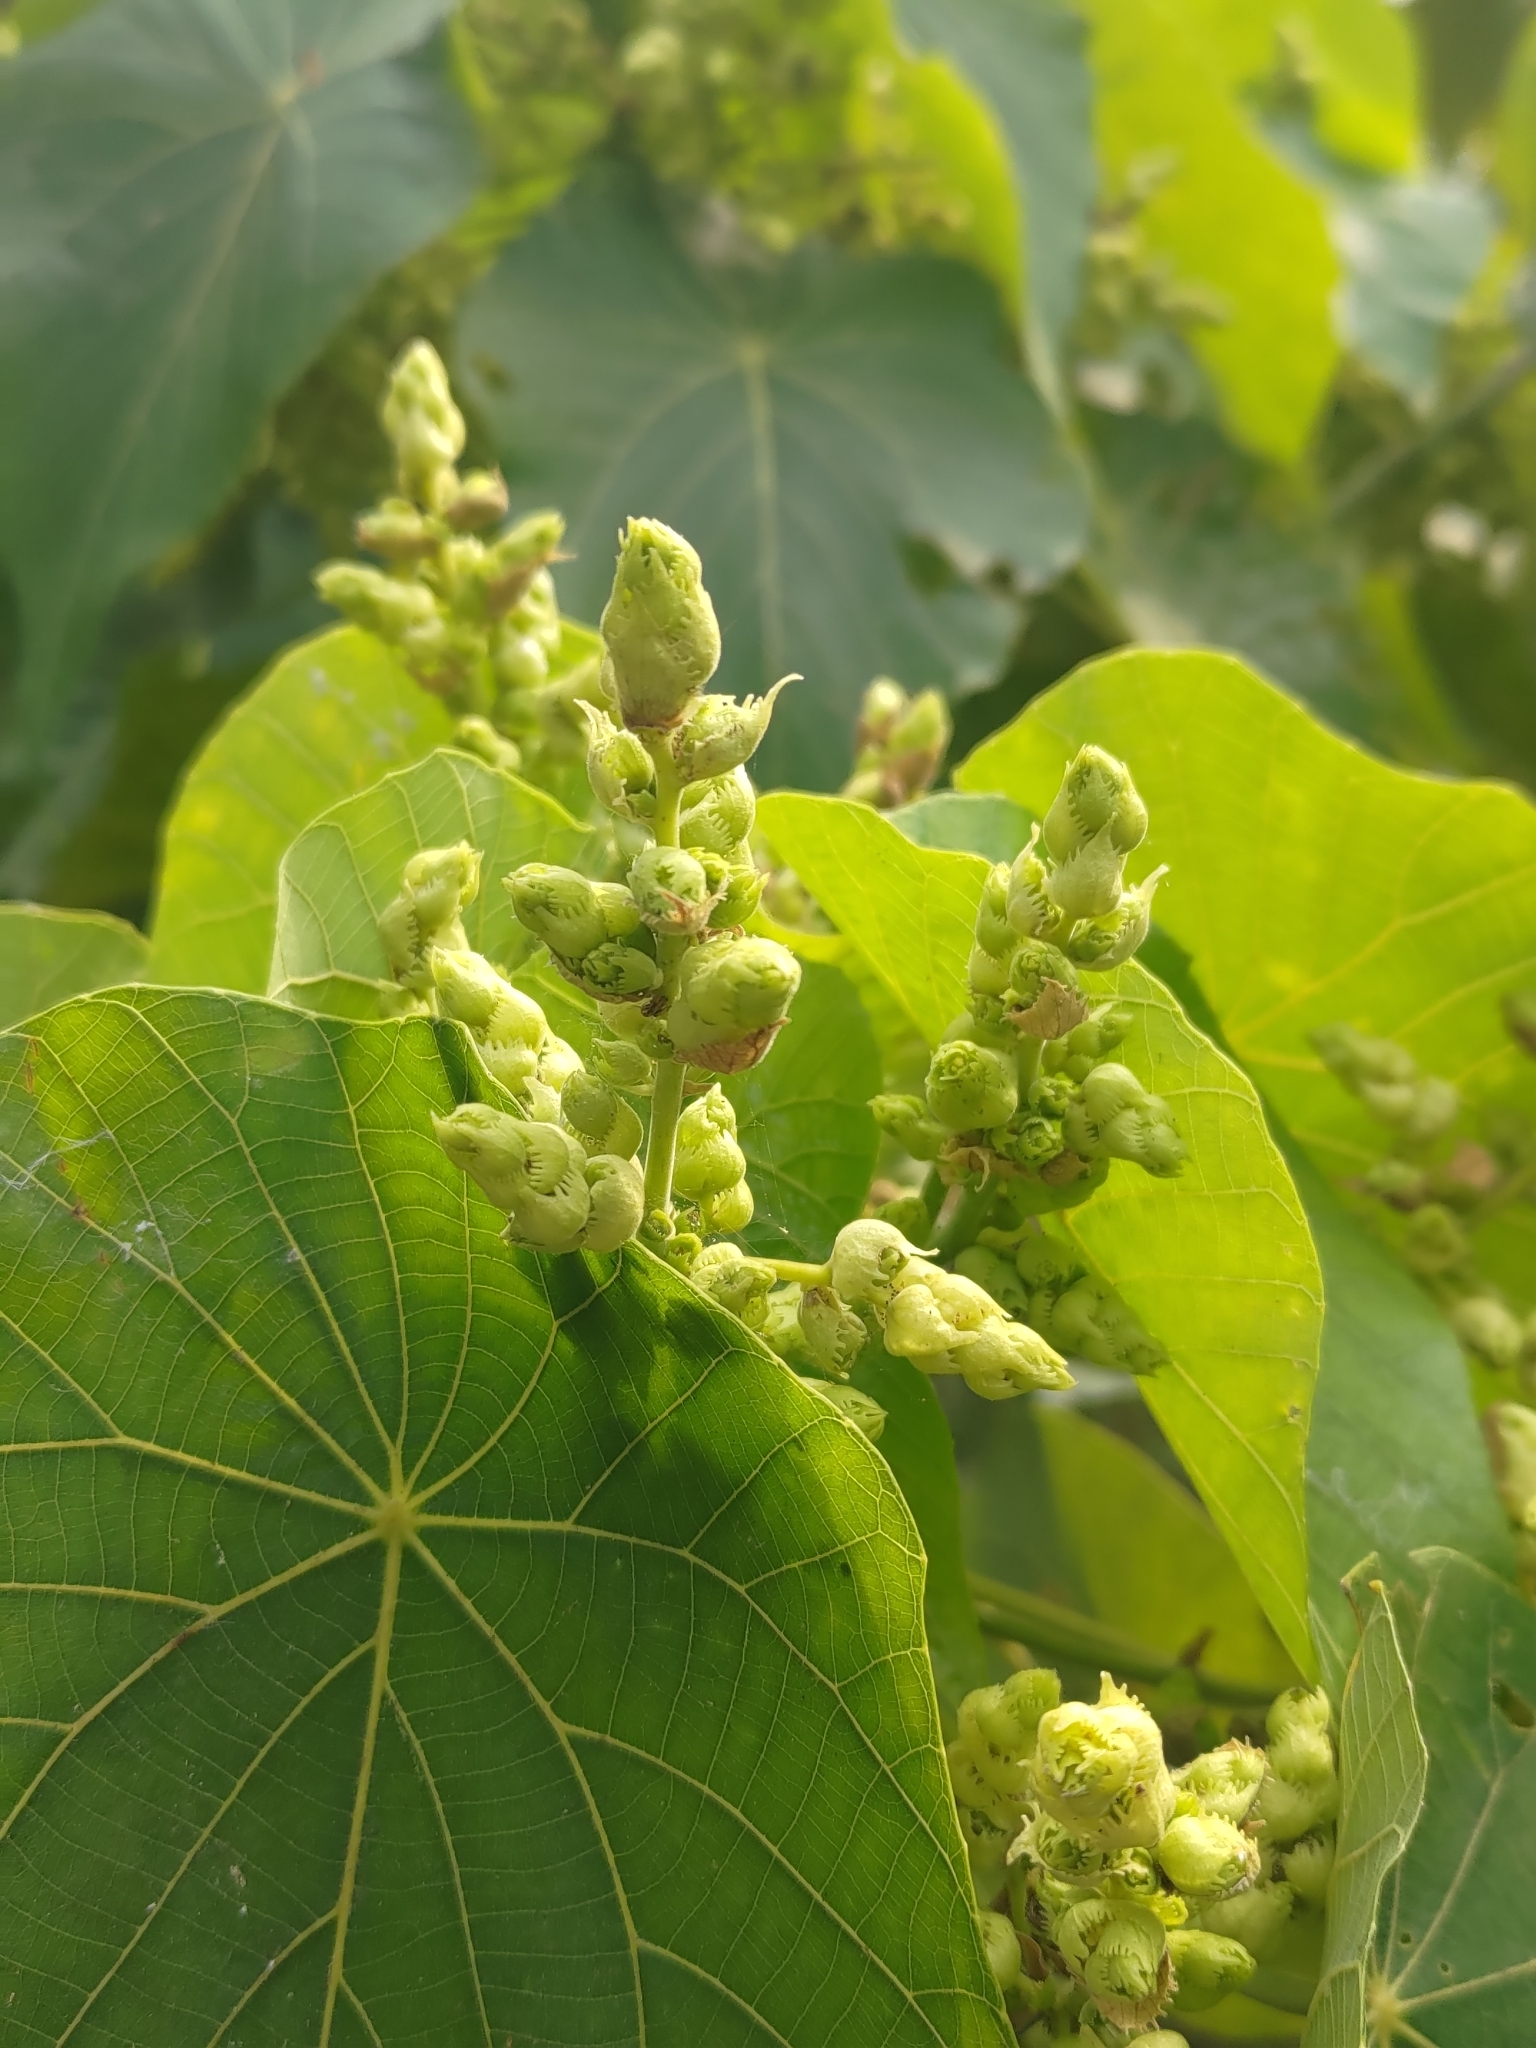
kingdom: Plantae
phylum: Tracheophyta
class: Magnoliopsida
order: Malpighiales
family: Euphorbiaceae
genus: Macaranga
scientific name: Macaranga tanarius
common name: Parasol leaf tree
